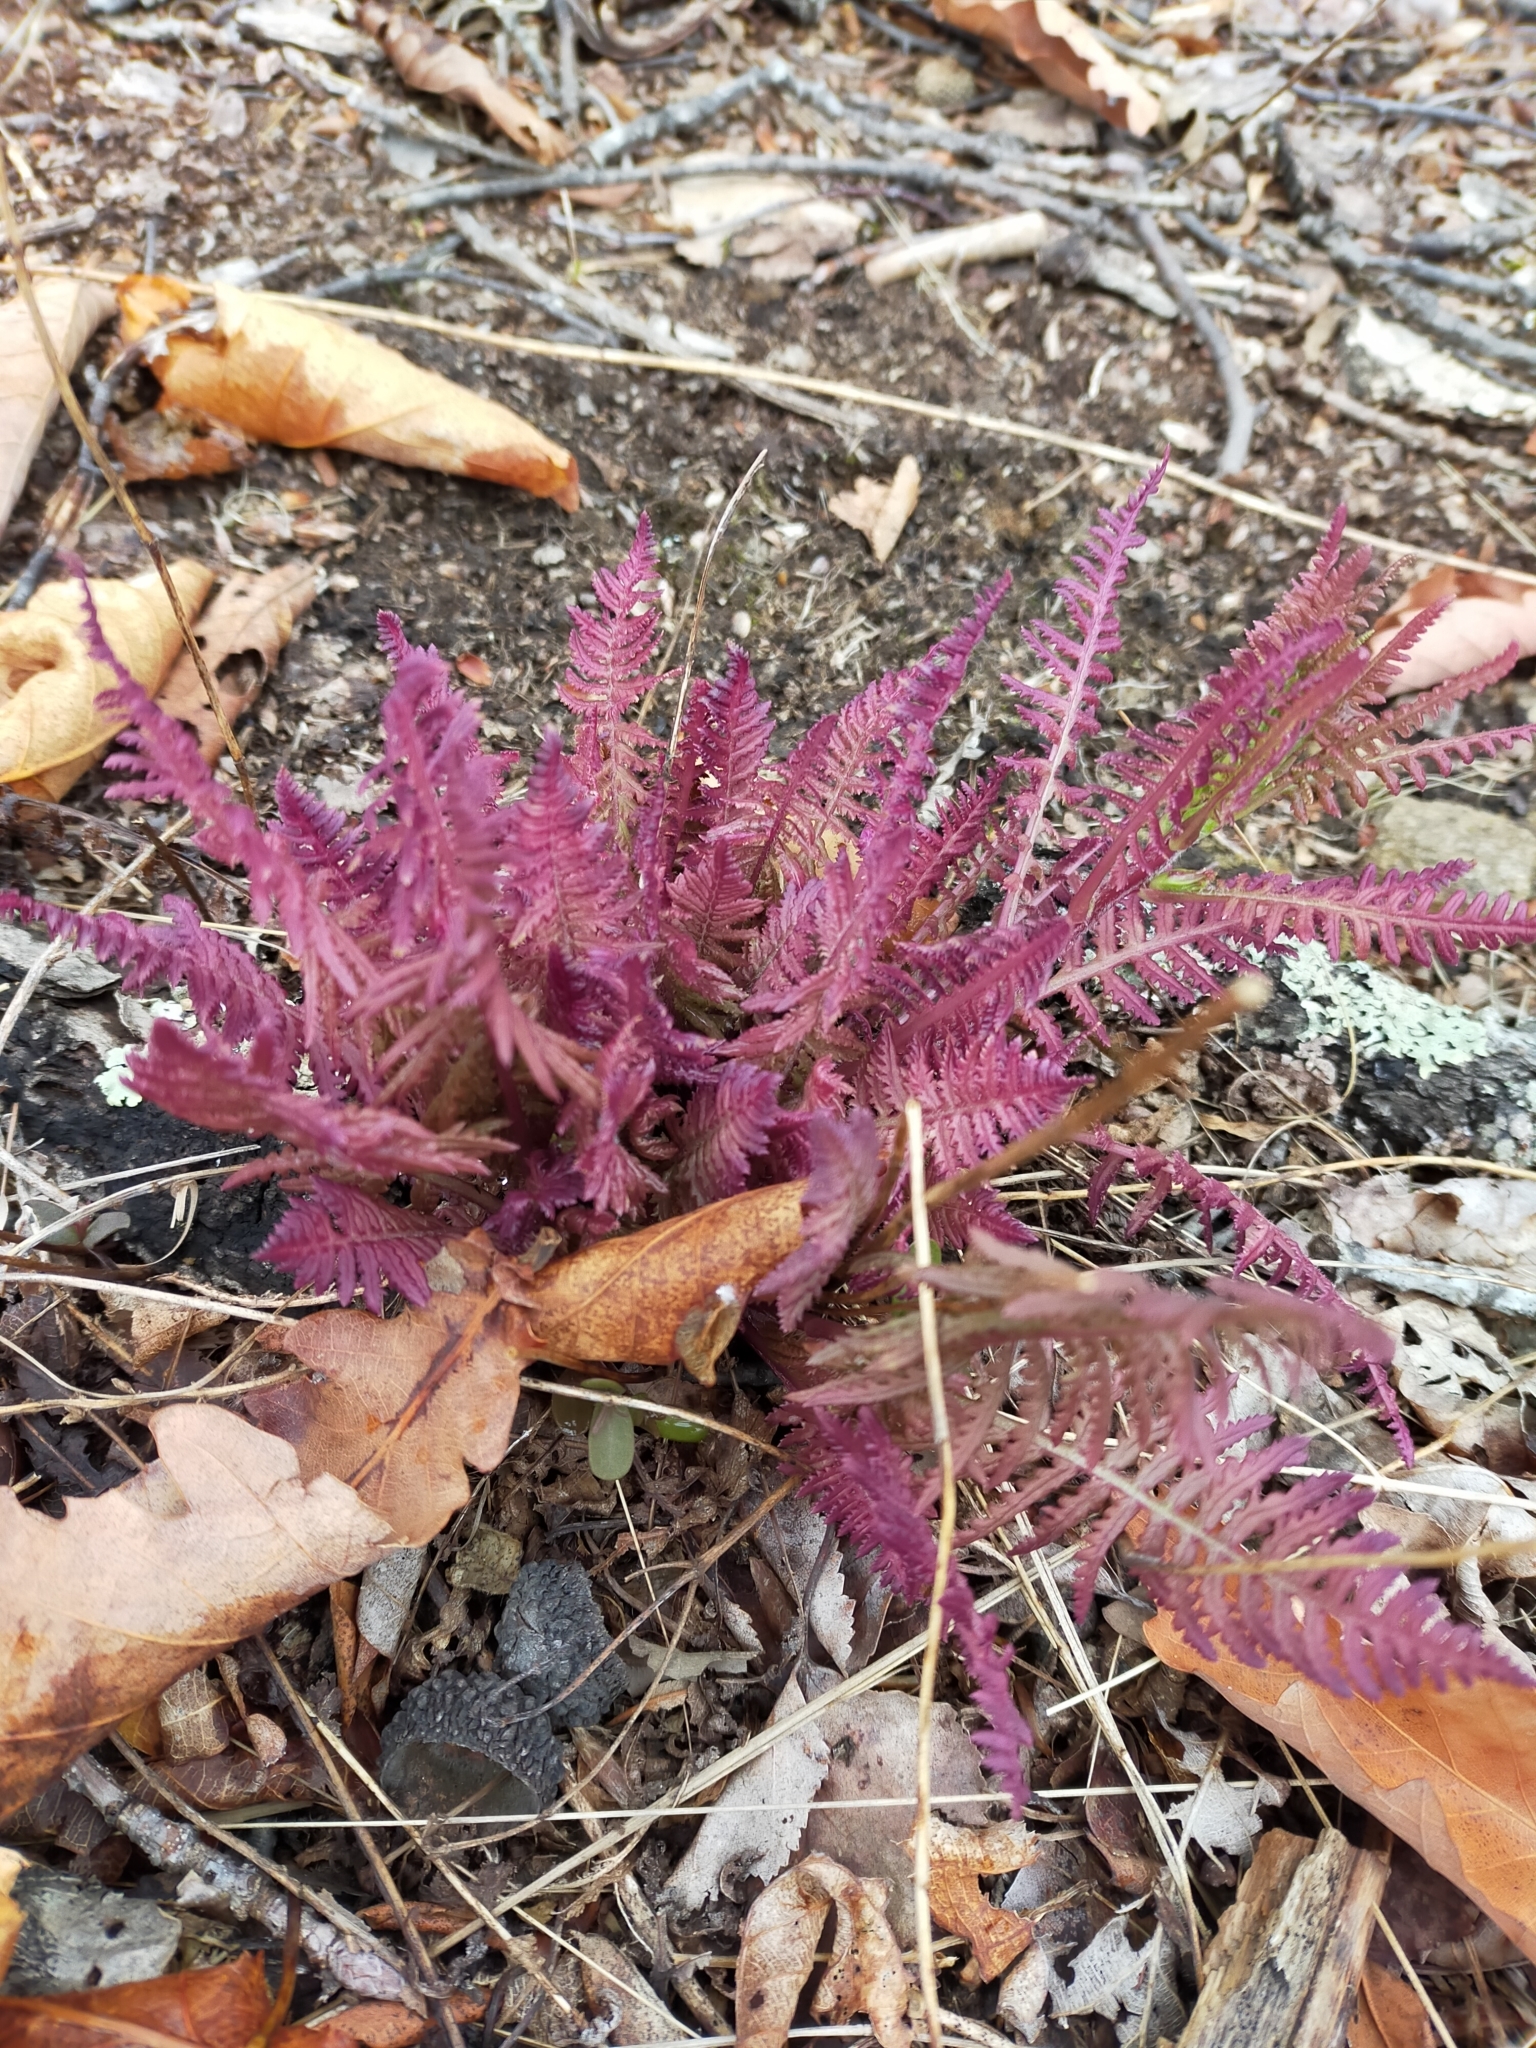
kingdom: Plantae
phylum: Tracheophyta
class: Magnoliopsida
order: Lamiales
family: Orobanchaceae
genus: Pedicularis
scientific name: Pedicularis mandshurica
